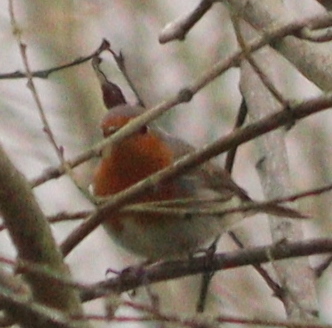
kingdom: Animalia
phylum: Chordata
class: Aves
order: Passeriformes
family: Muscicapidae
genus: Erithacus
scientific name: Erithacus rubecula
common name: European robin
